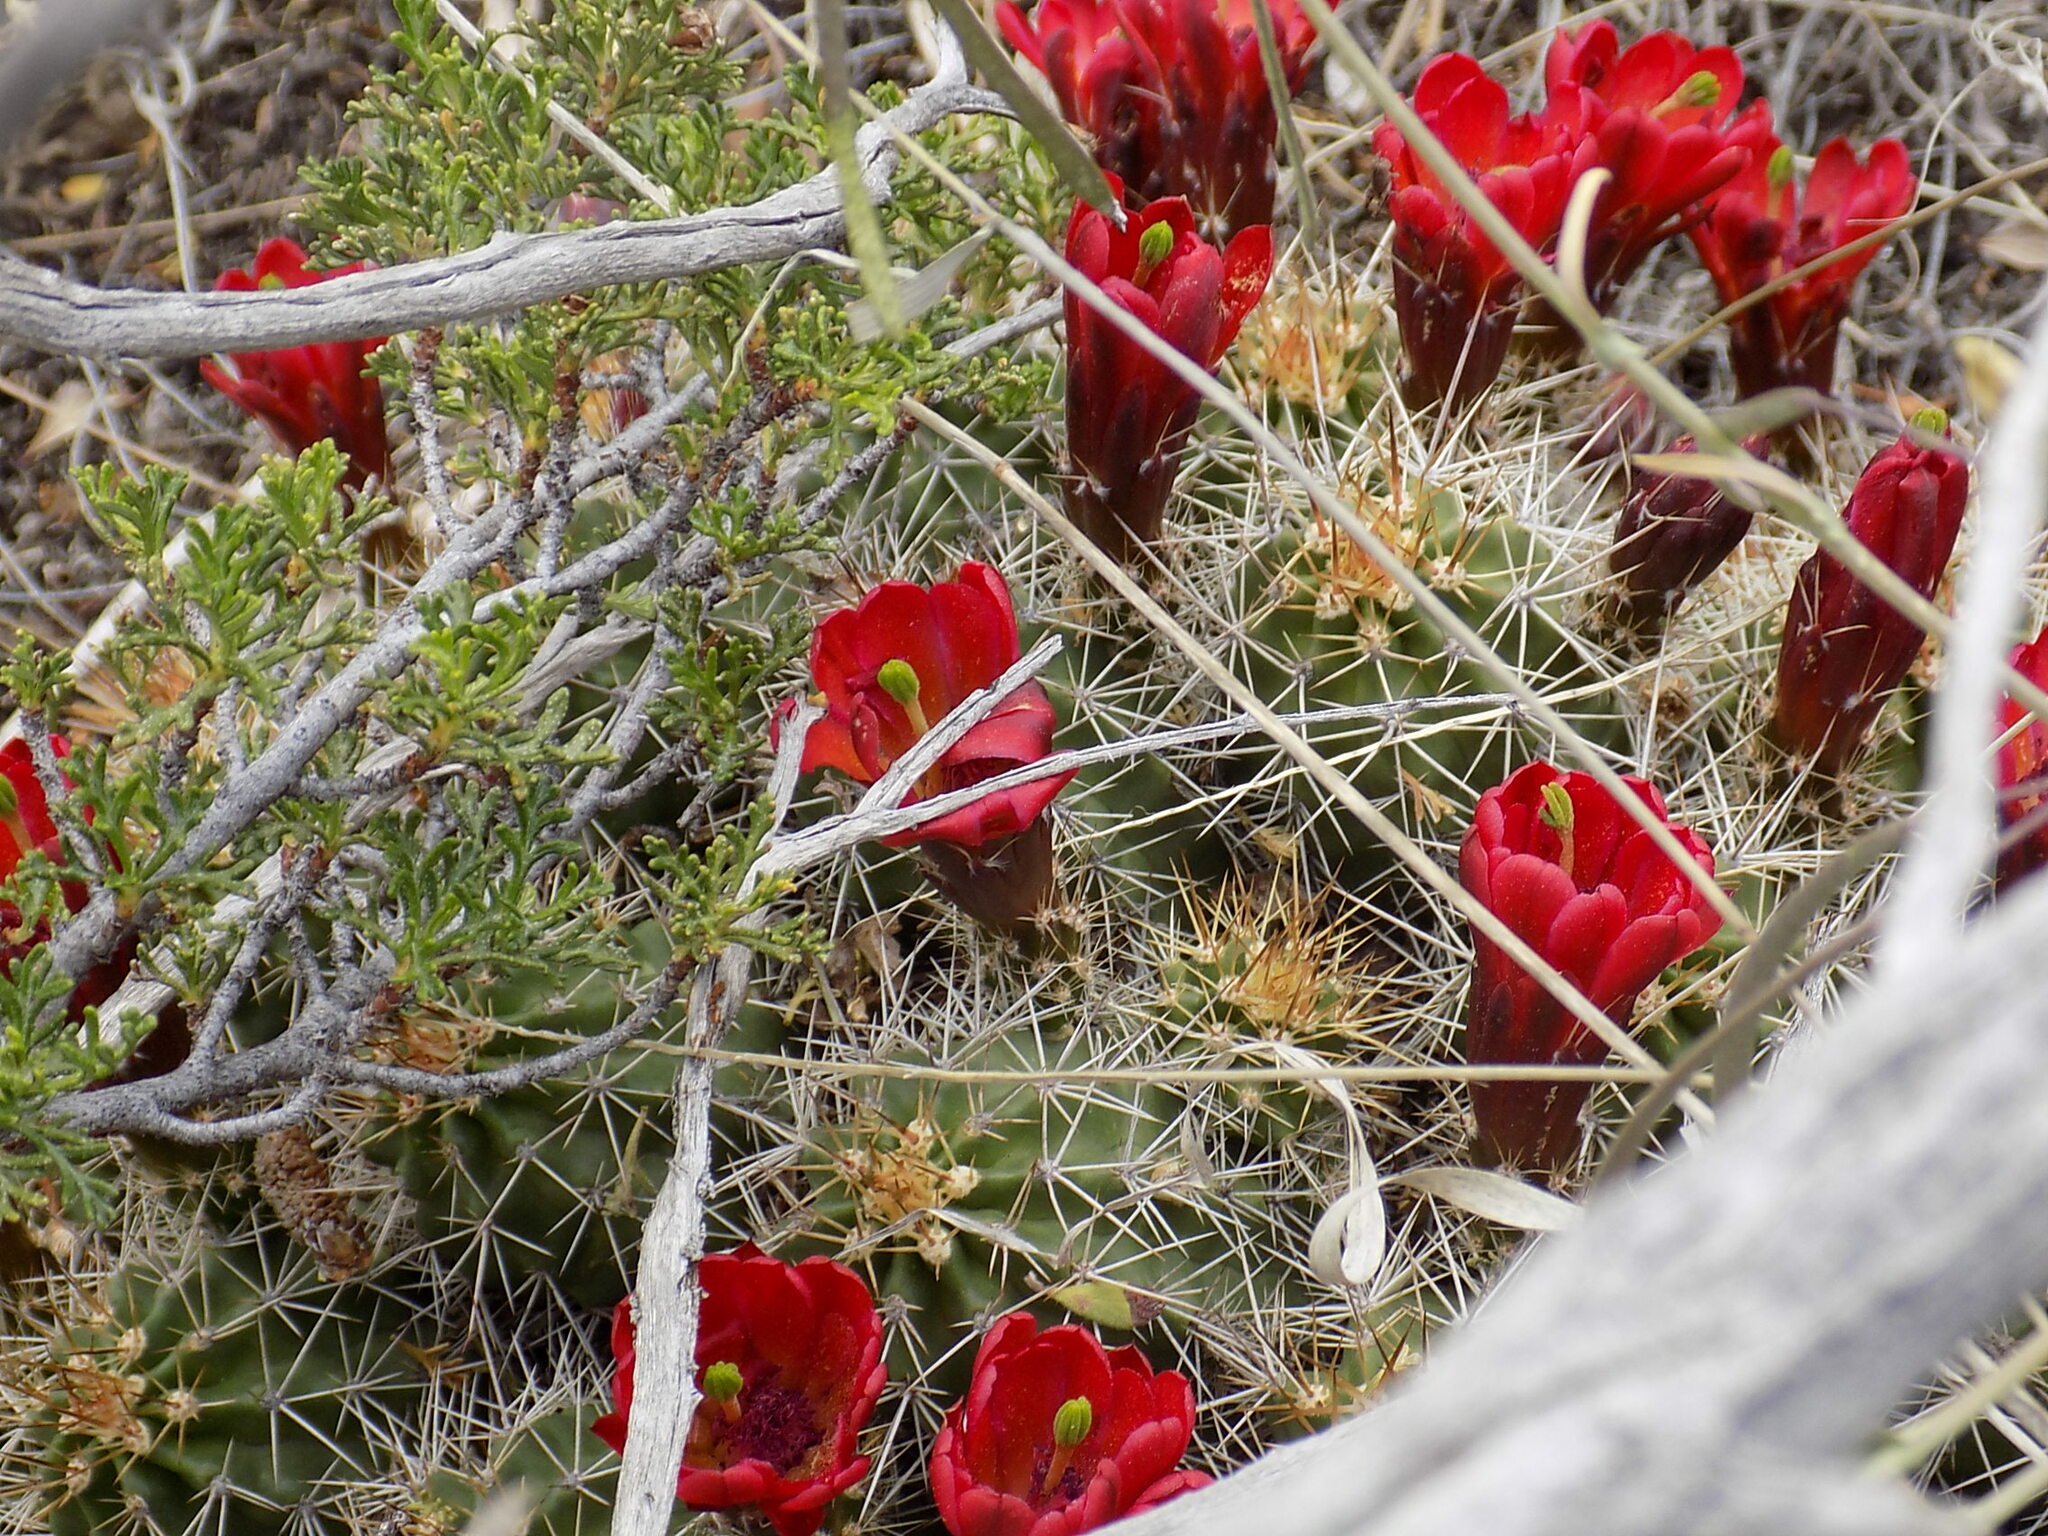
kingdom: Plantae
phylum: Tracheophyta
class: Magnoliopsida
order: Caryophyllales
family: Cactaceae
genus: Echinocereus
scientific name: Echinocereus bakeri
